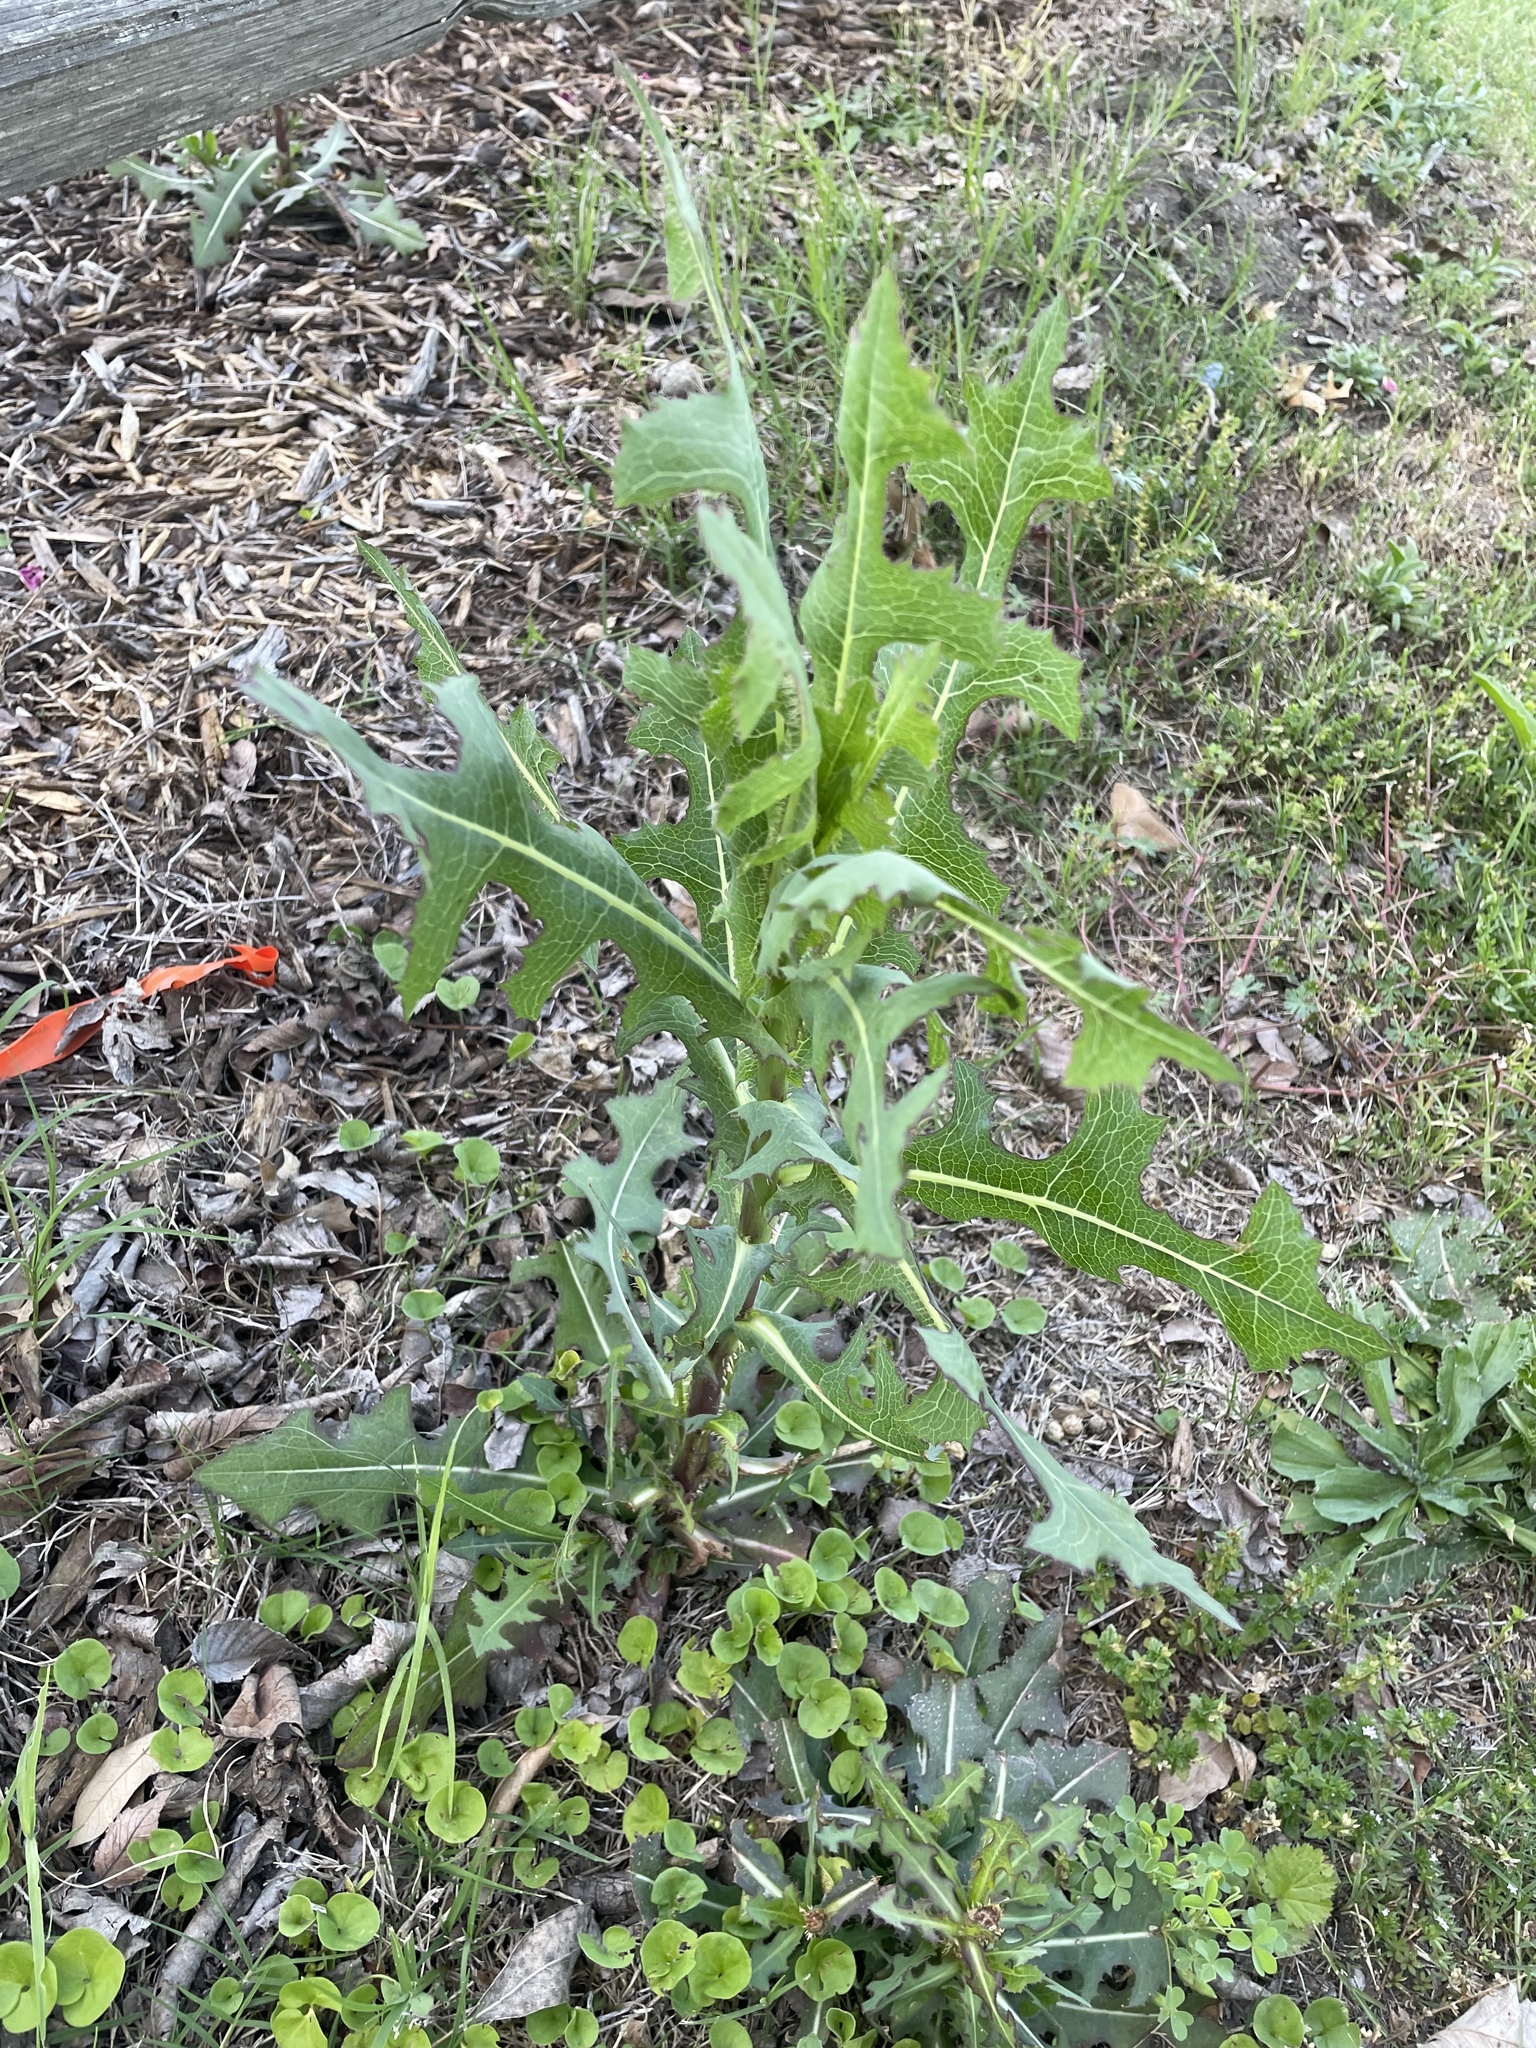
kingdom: Plantae
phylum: Tracheophyta
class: Magnoliopsida
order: Asterales
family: Asteraceae
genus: Lactuca
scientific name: Lactuca serriola
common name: Prickly lettuce
